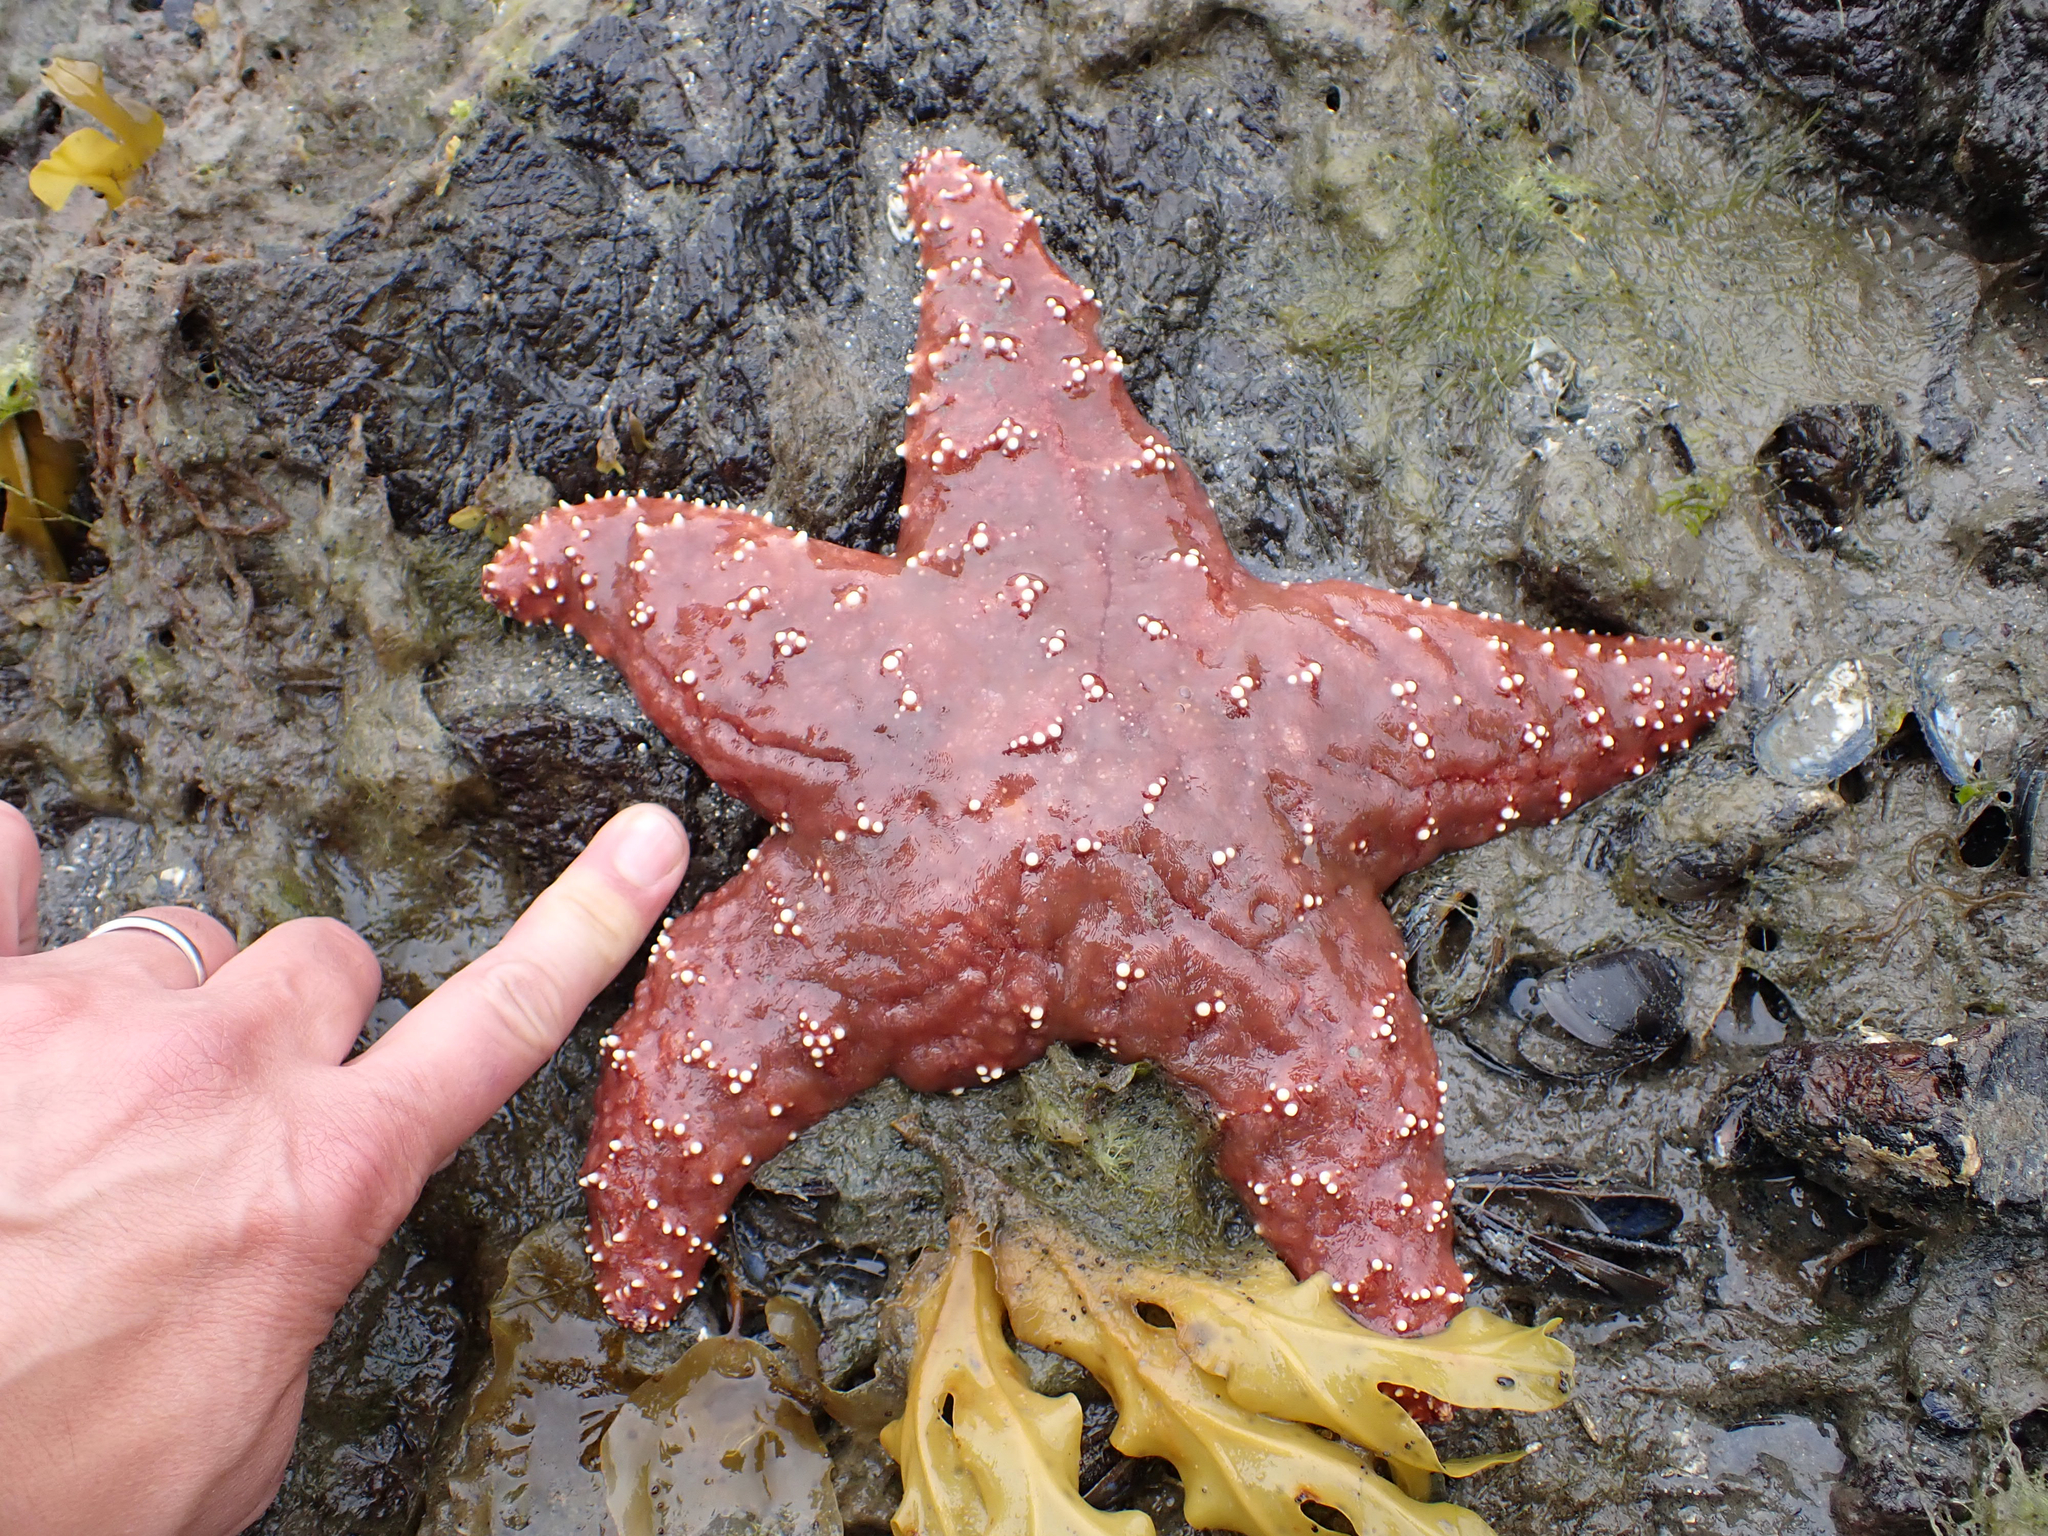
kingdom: Animalia
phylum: Echinodermata
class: Asteroidea
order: Forcipulatida
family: Asteriidae
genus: Pisaster
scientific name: Pisaster ochraceus
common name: Ochre stars
